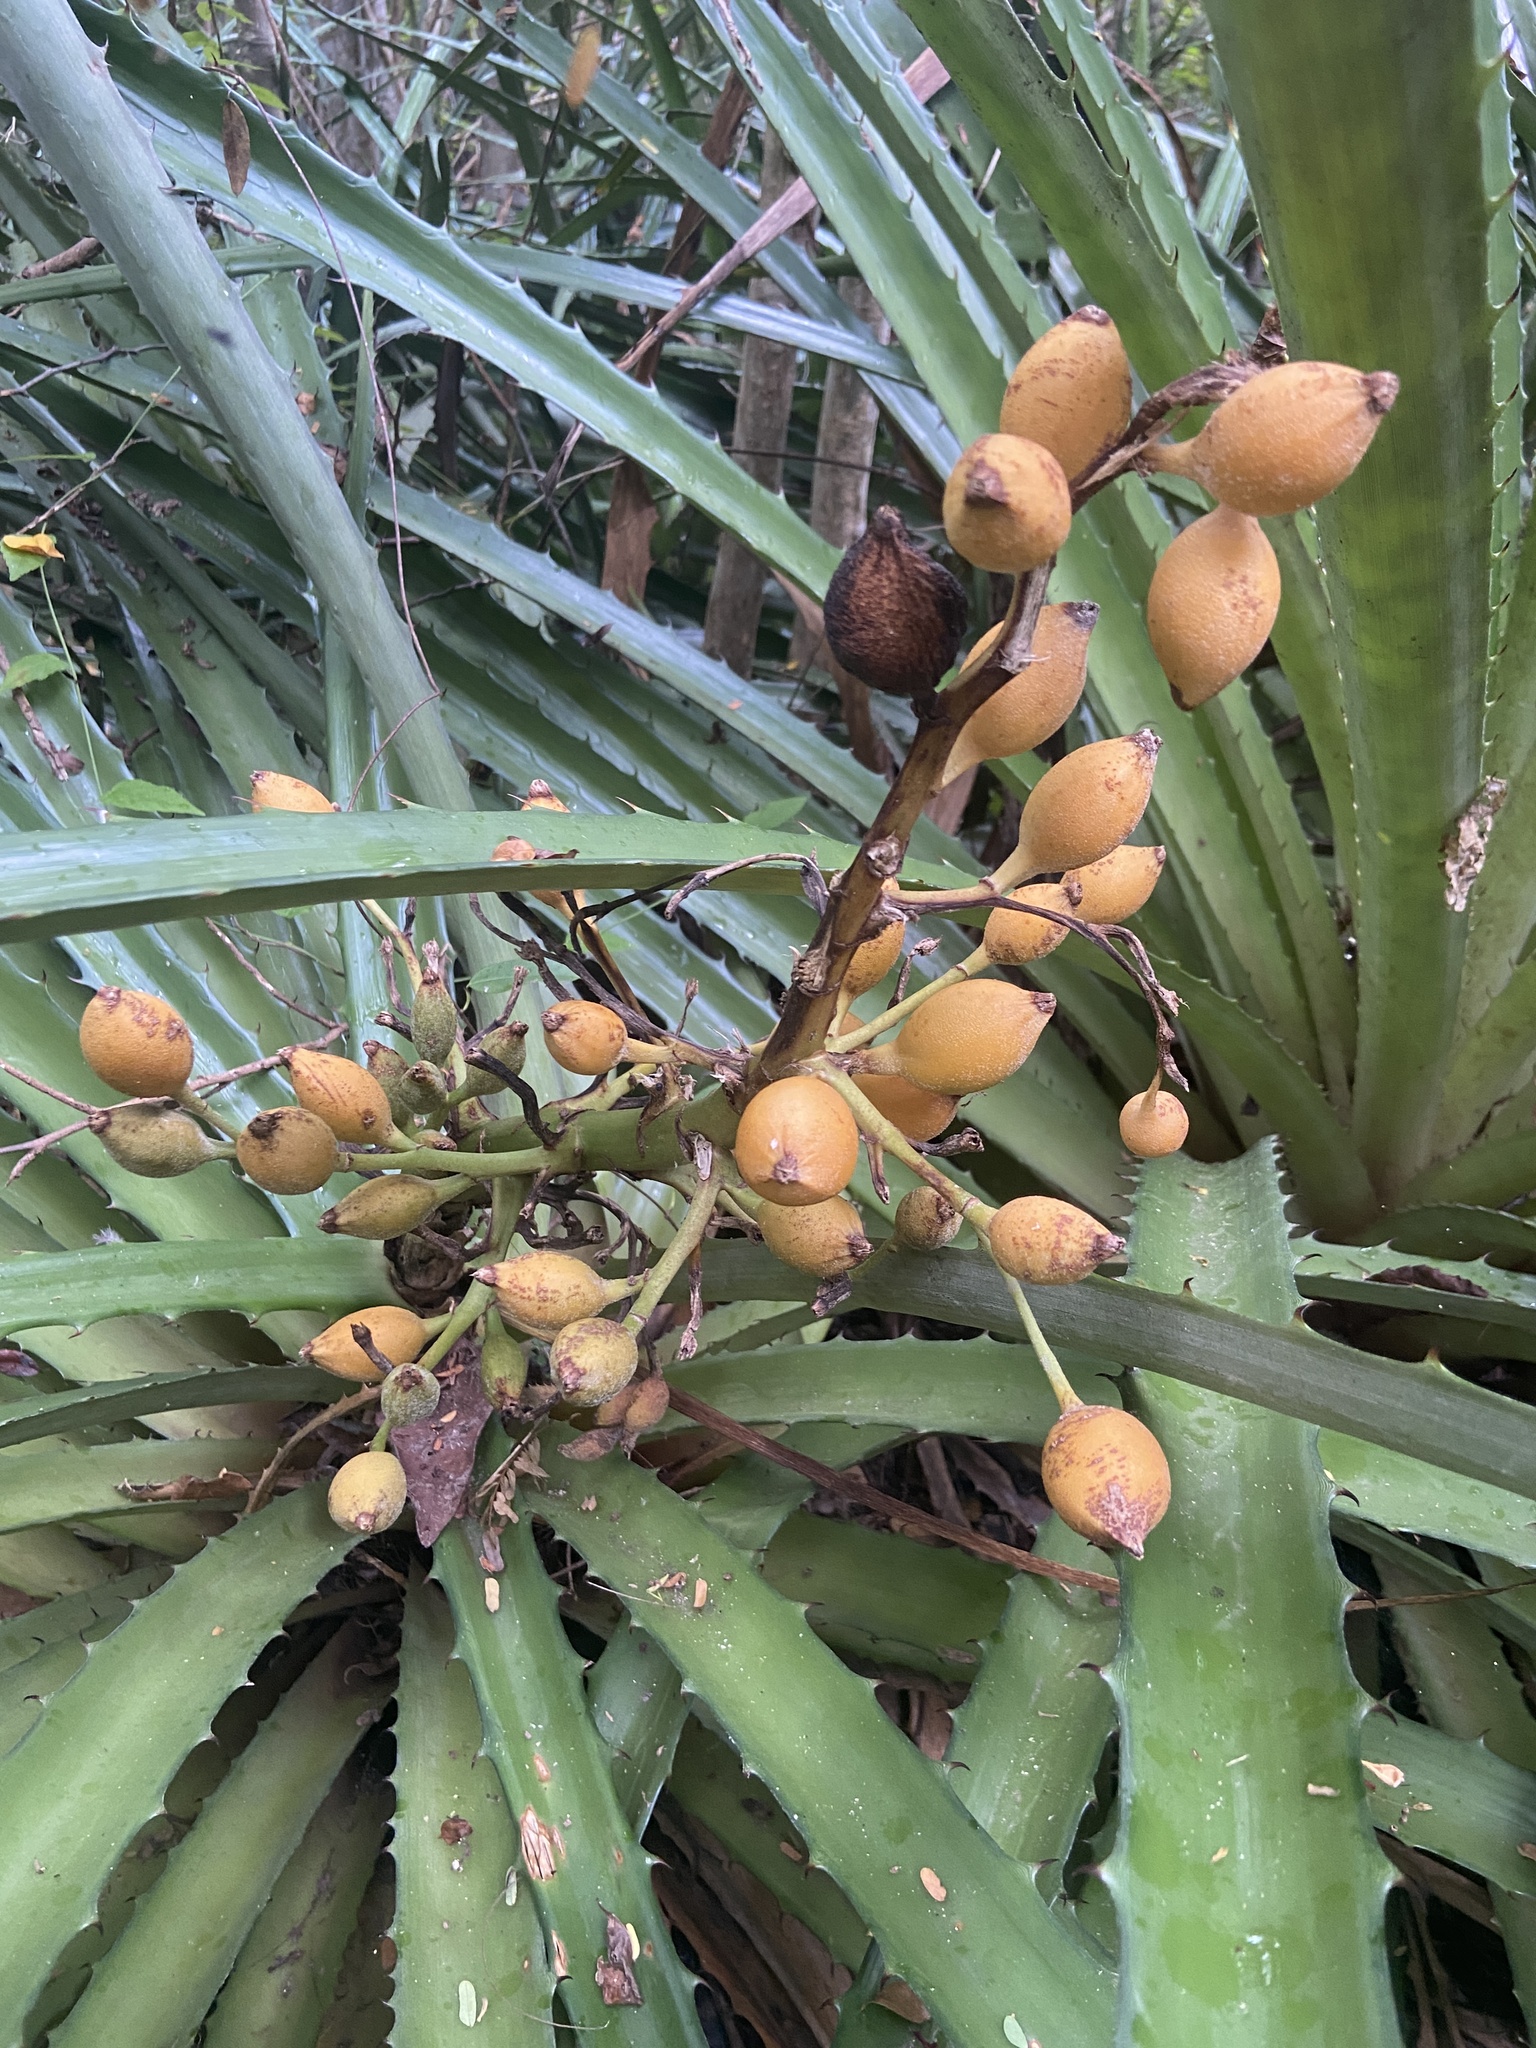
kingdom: Plantae
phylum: Tracheophyta
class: Liliopsida
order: Poales
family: Bromeliaceae
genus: Bromelia
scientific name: Bromelia pinguin
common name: Pinguin
